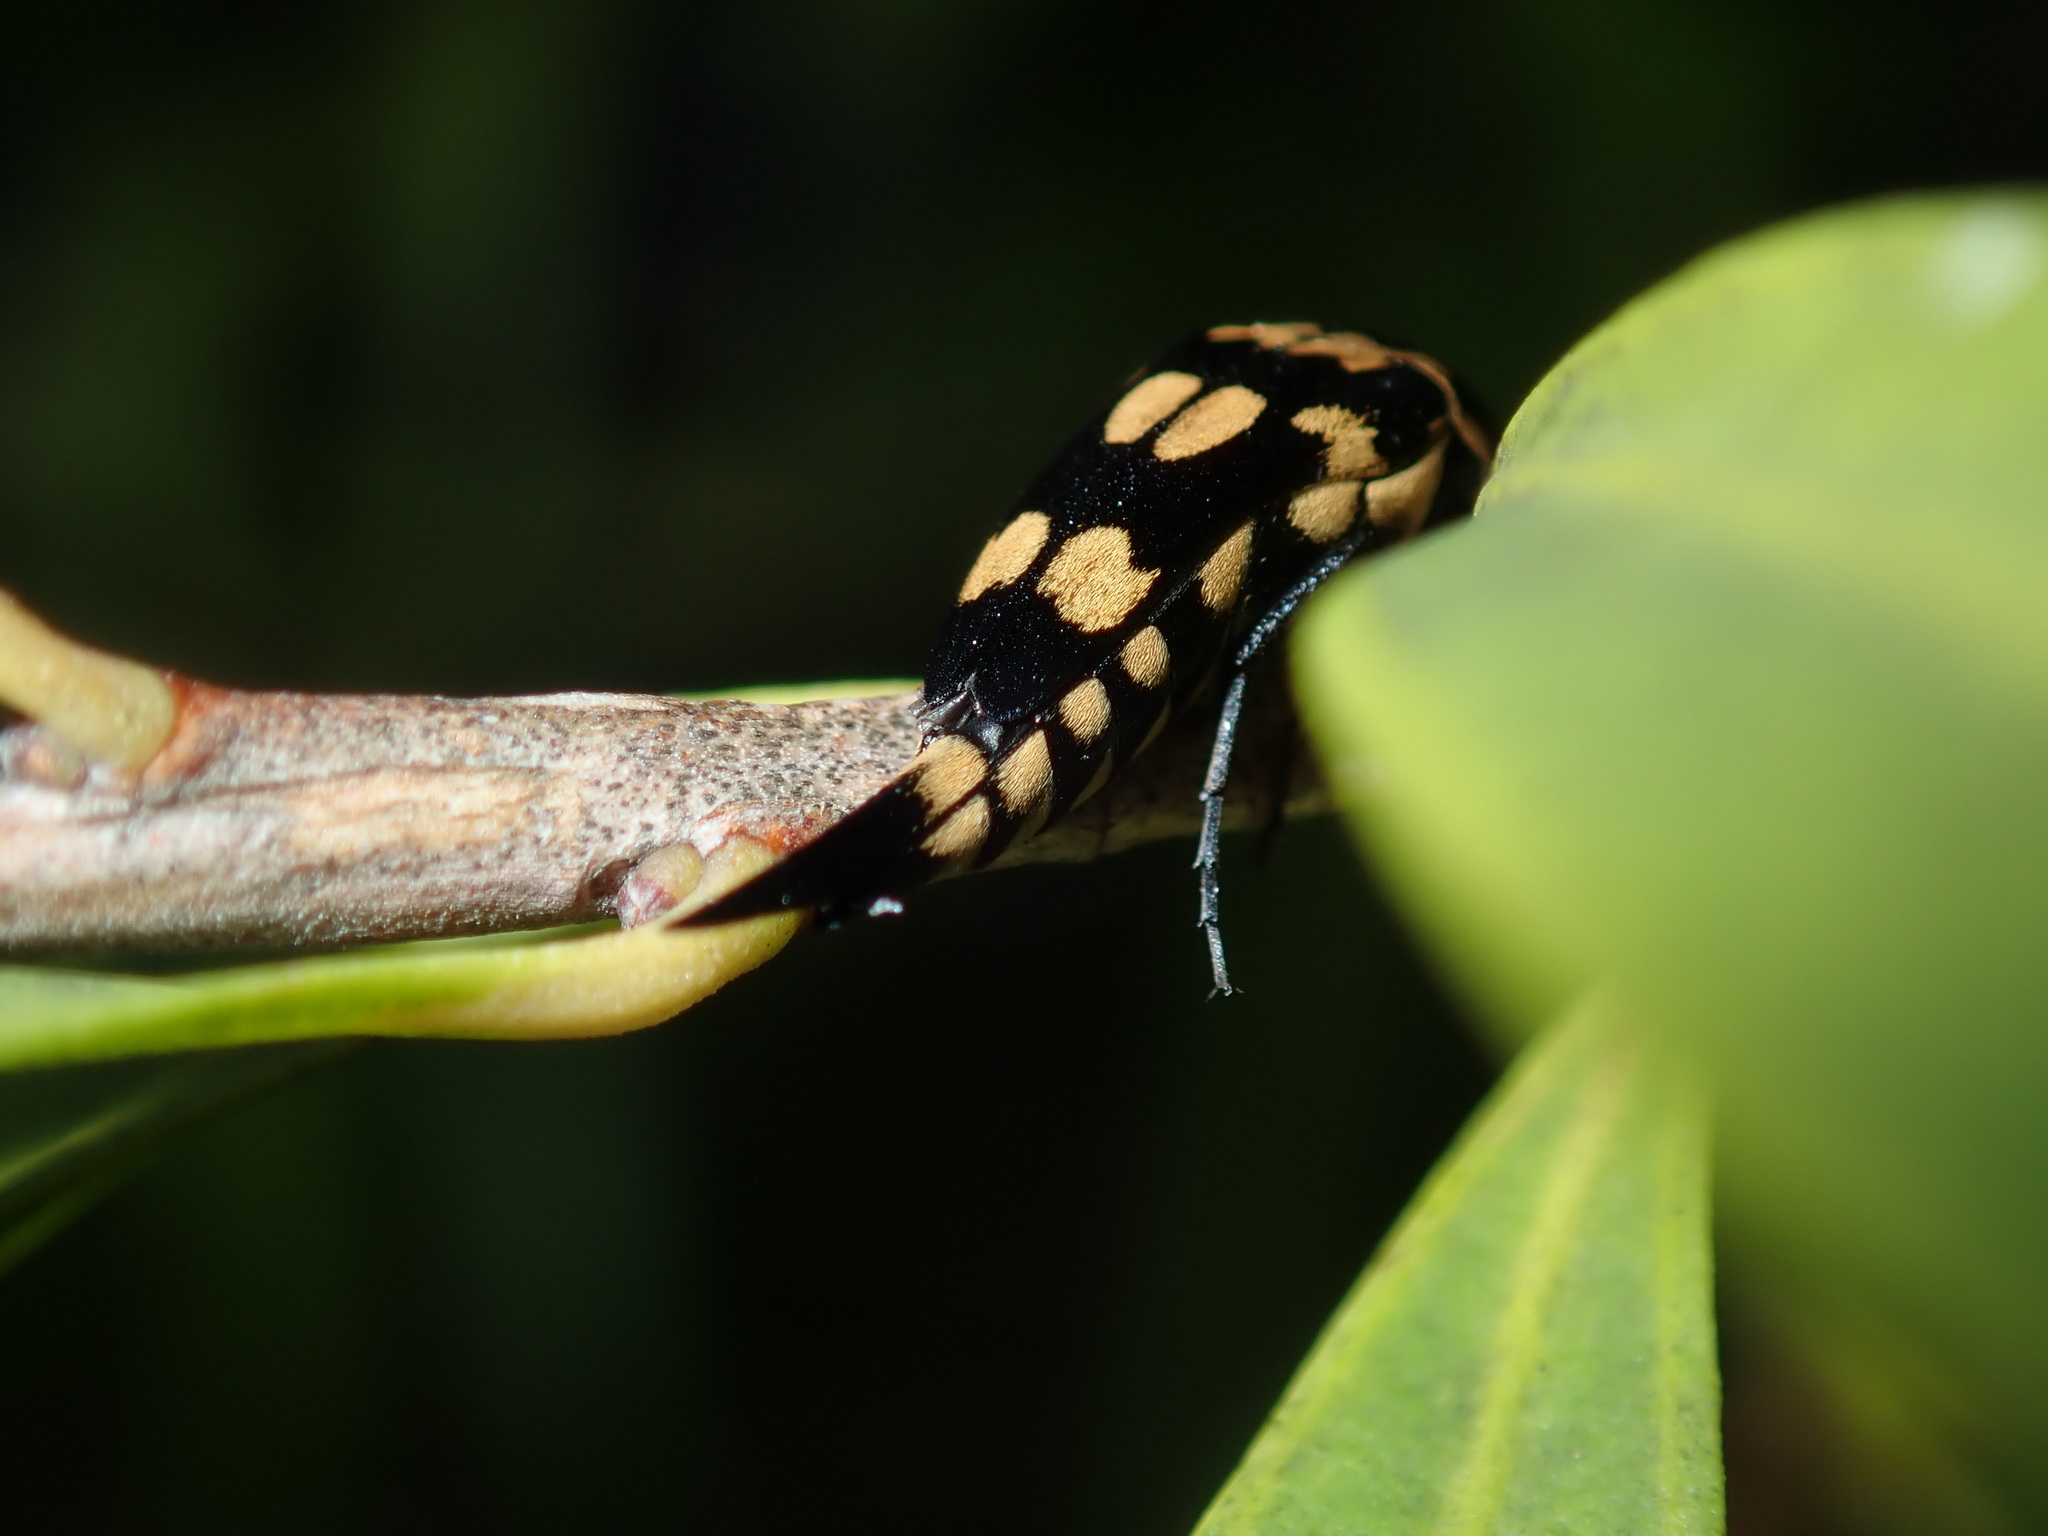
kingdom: Animalia
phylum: Arthropoda
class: Insecta
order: Coleoptera
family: Mordellidae
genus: Hoshihananomia
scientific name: Hoshihananomia
